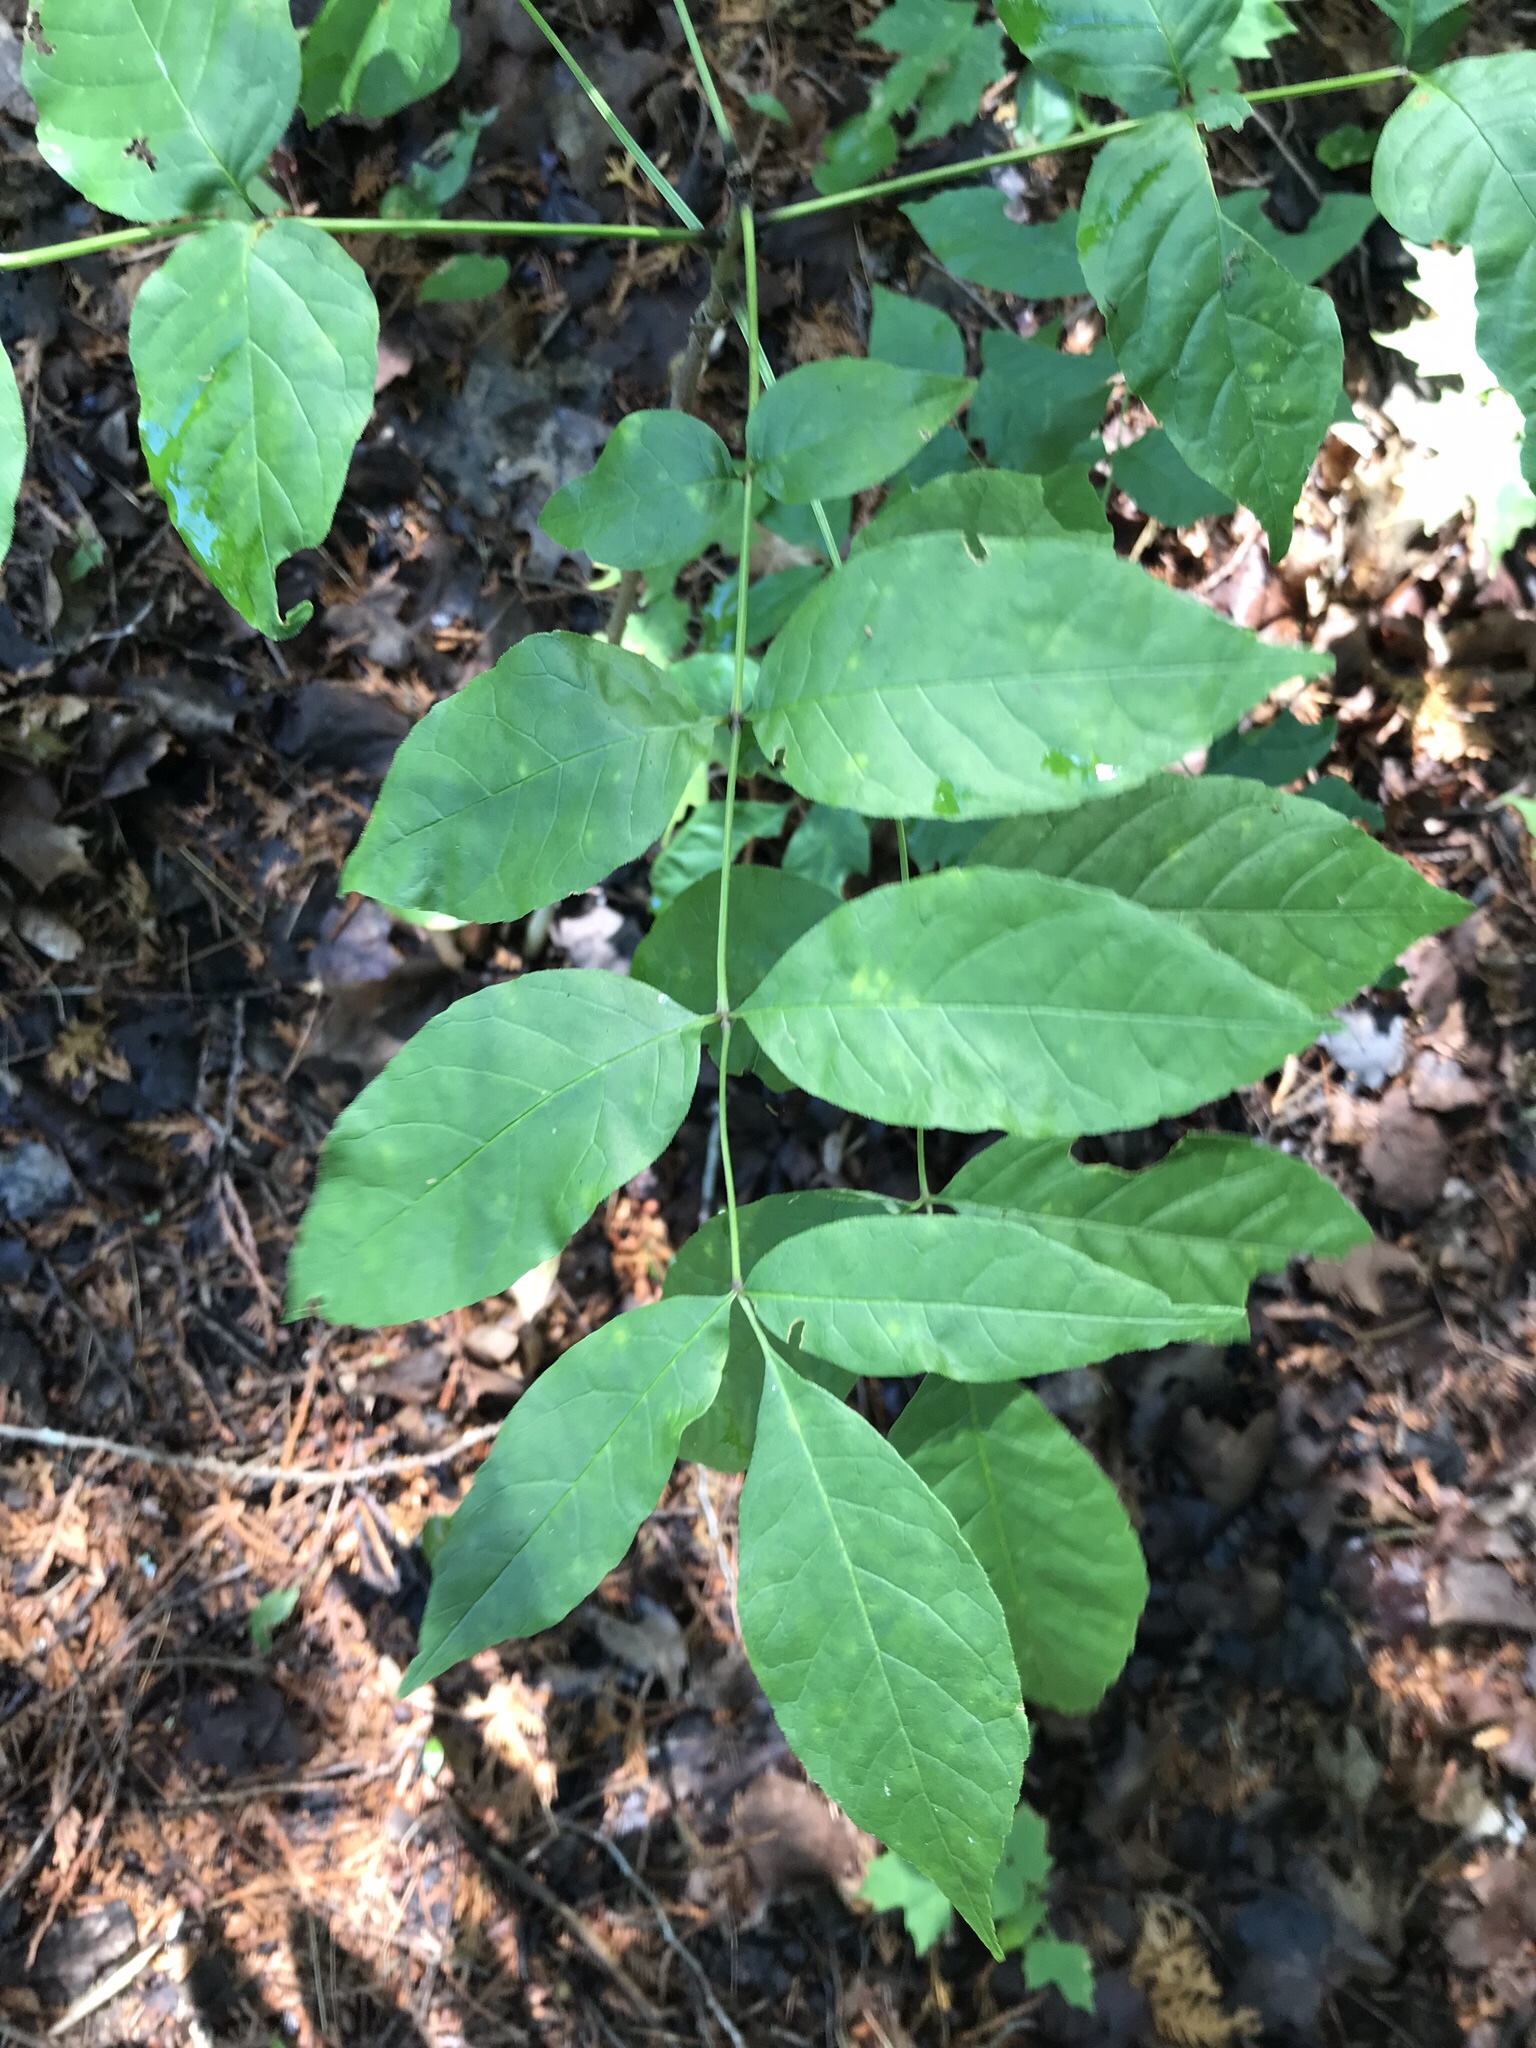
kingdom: Plantae
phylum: Tracheophyta
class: Magnoliopsida
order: Lamiales
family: Oleaceae
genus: Fraxinus
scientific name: Fraxinus americana
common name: White ash
